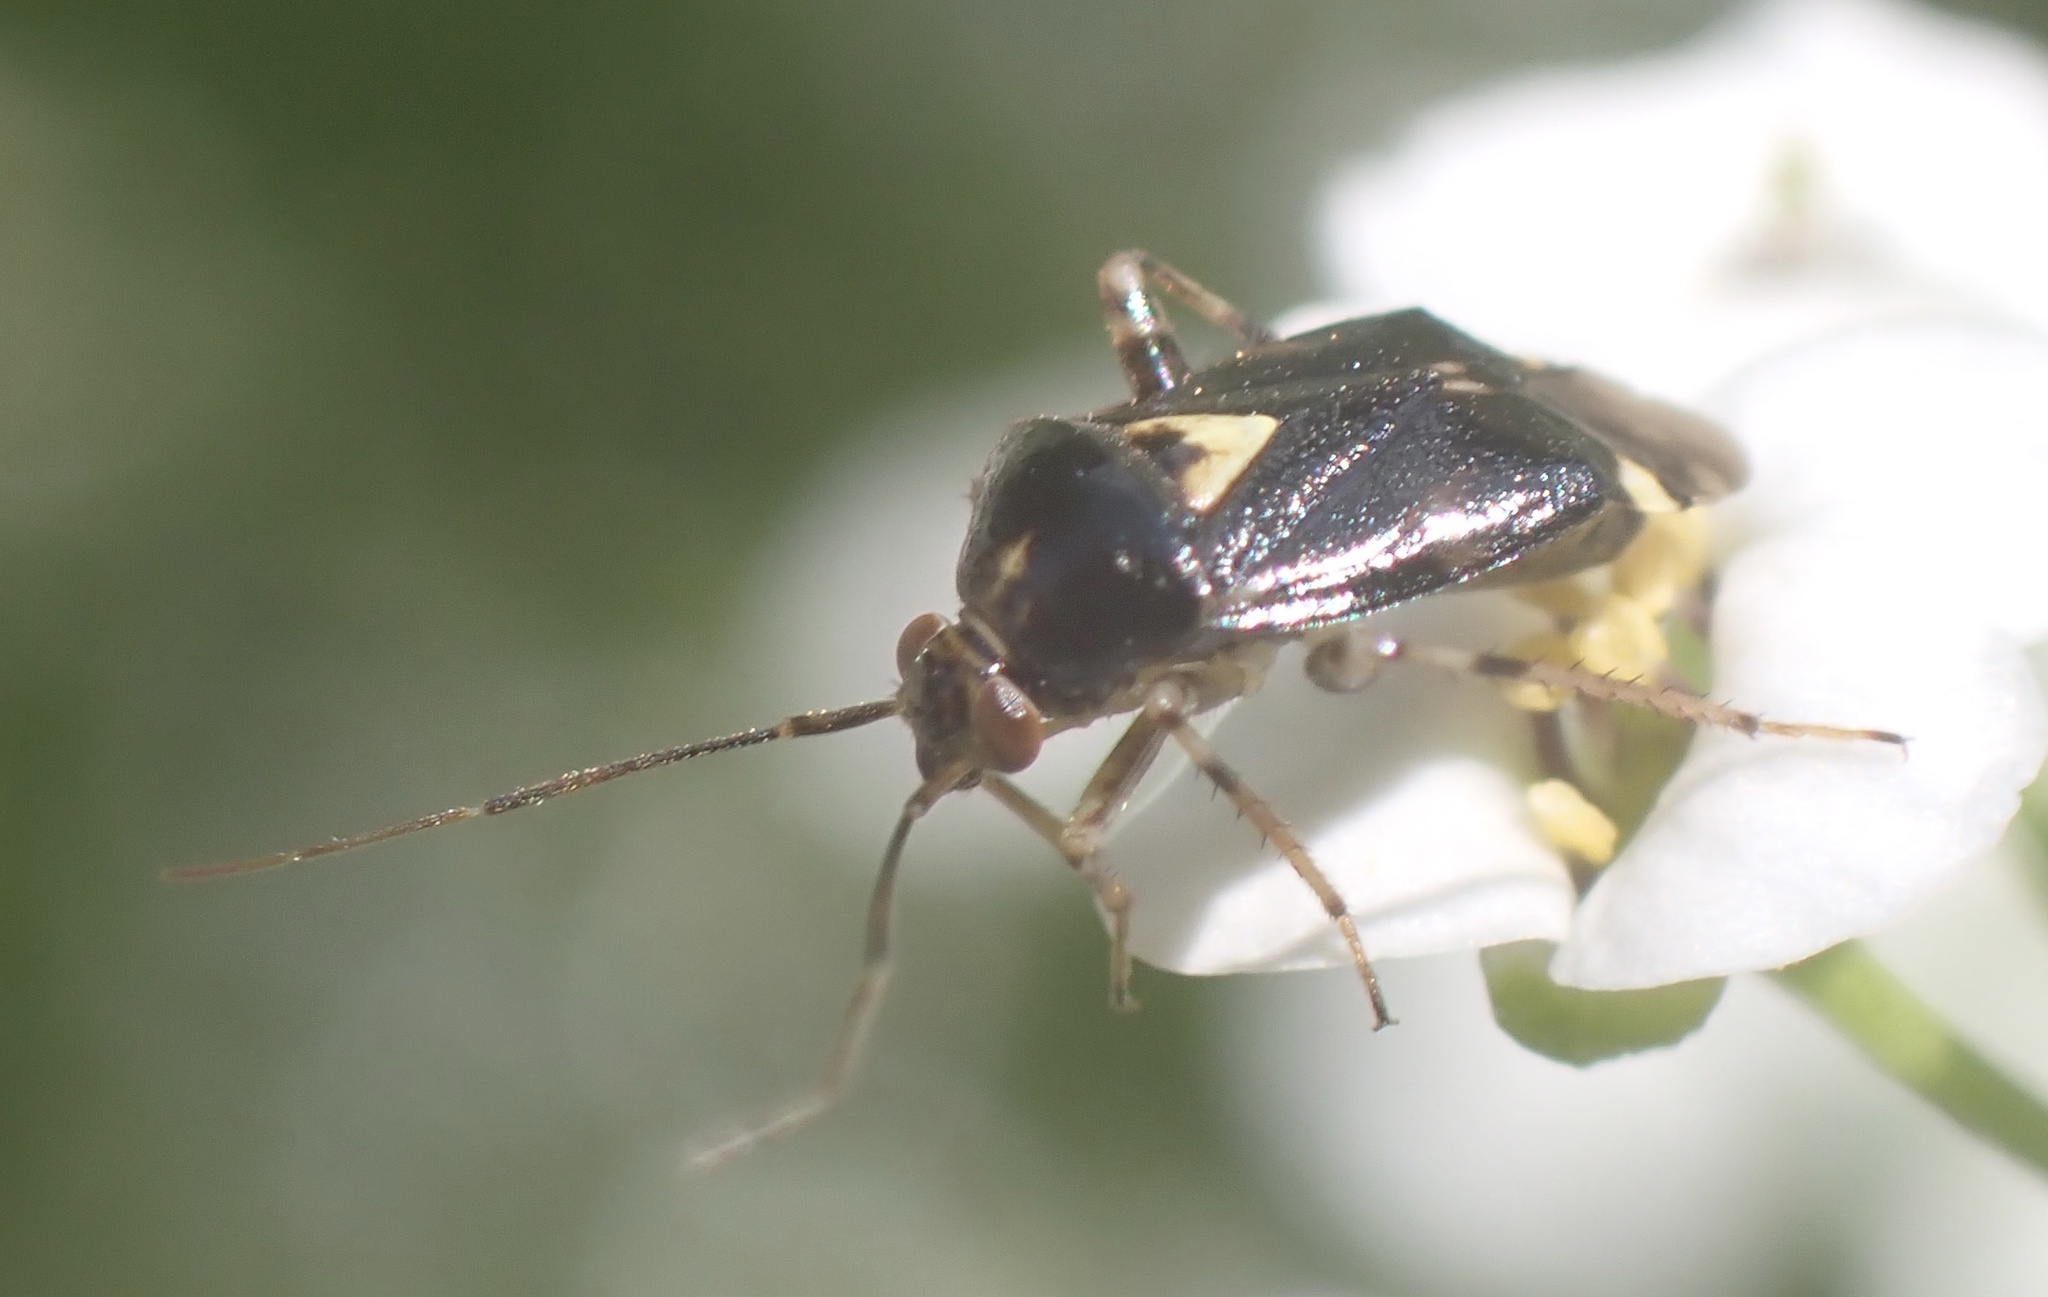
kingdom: Animalia
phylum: Arthropoda
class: Insecta
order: Hemiptera
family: Miridae
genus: Liocoris
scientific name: Liocoris tripustulatus
